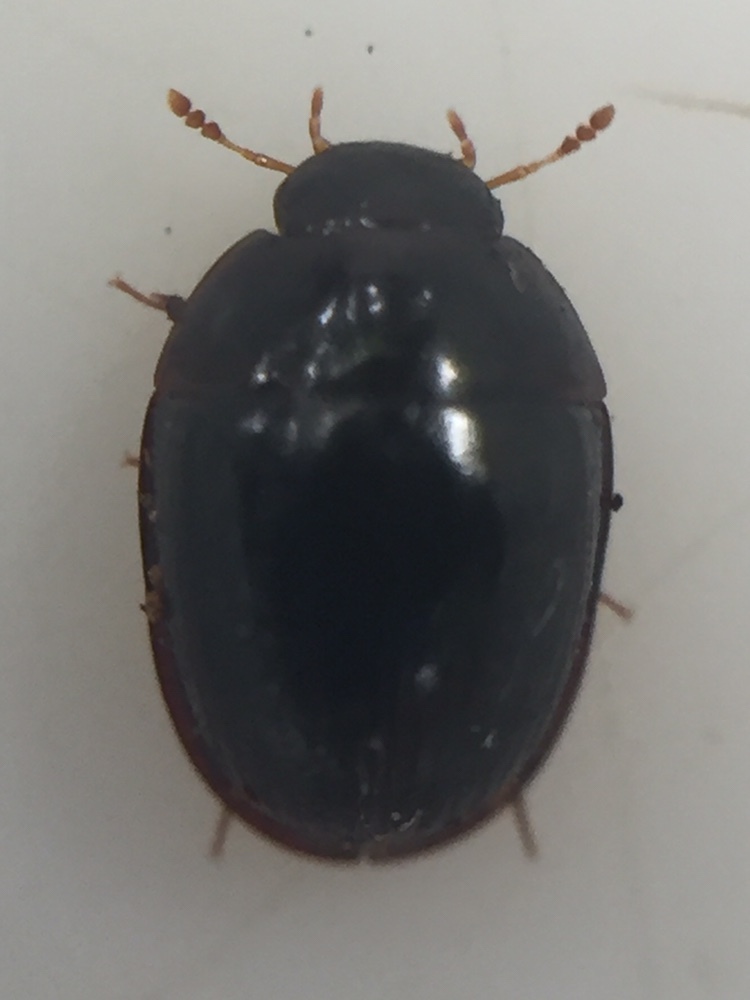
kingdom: Animalia
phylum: Arthropoda
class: Insecta
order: Coleoptera
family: Hydrophilidae
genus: Dactylosternum
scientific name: Dactylosternum marginale
